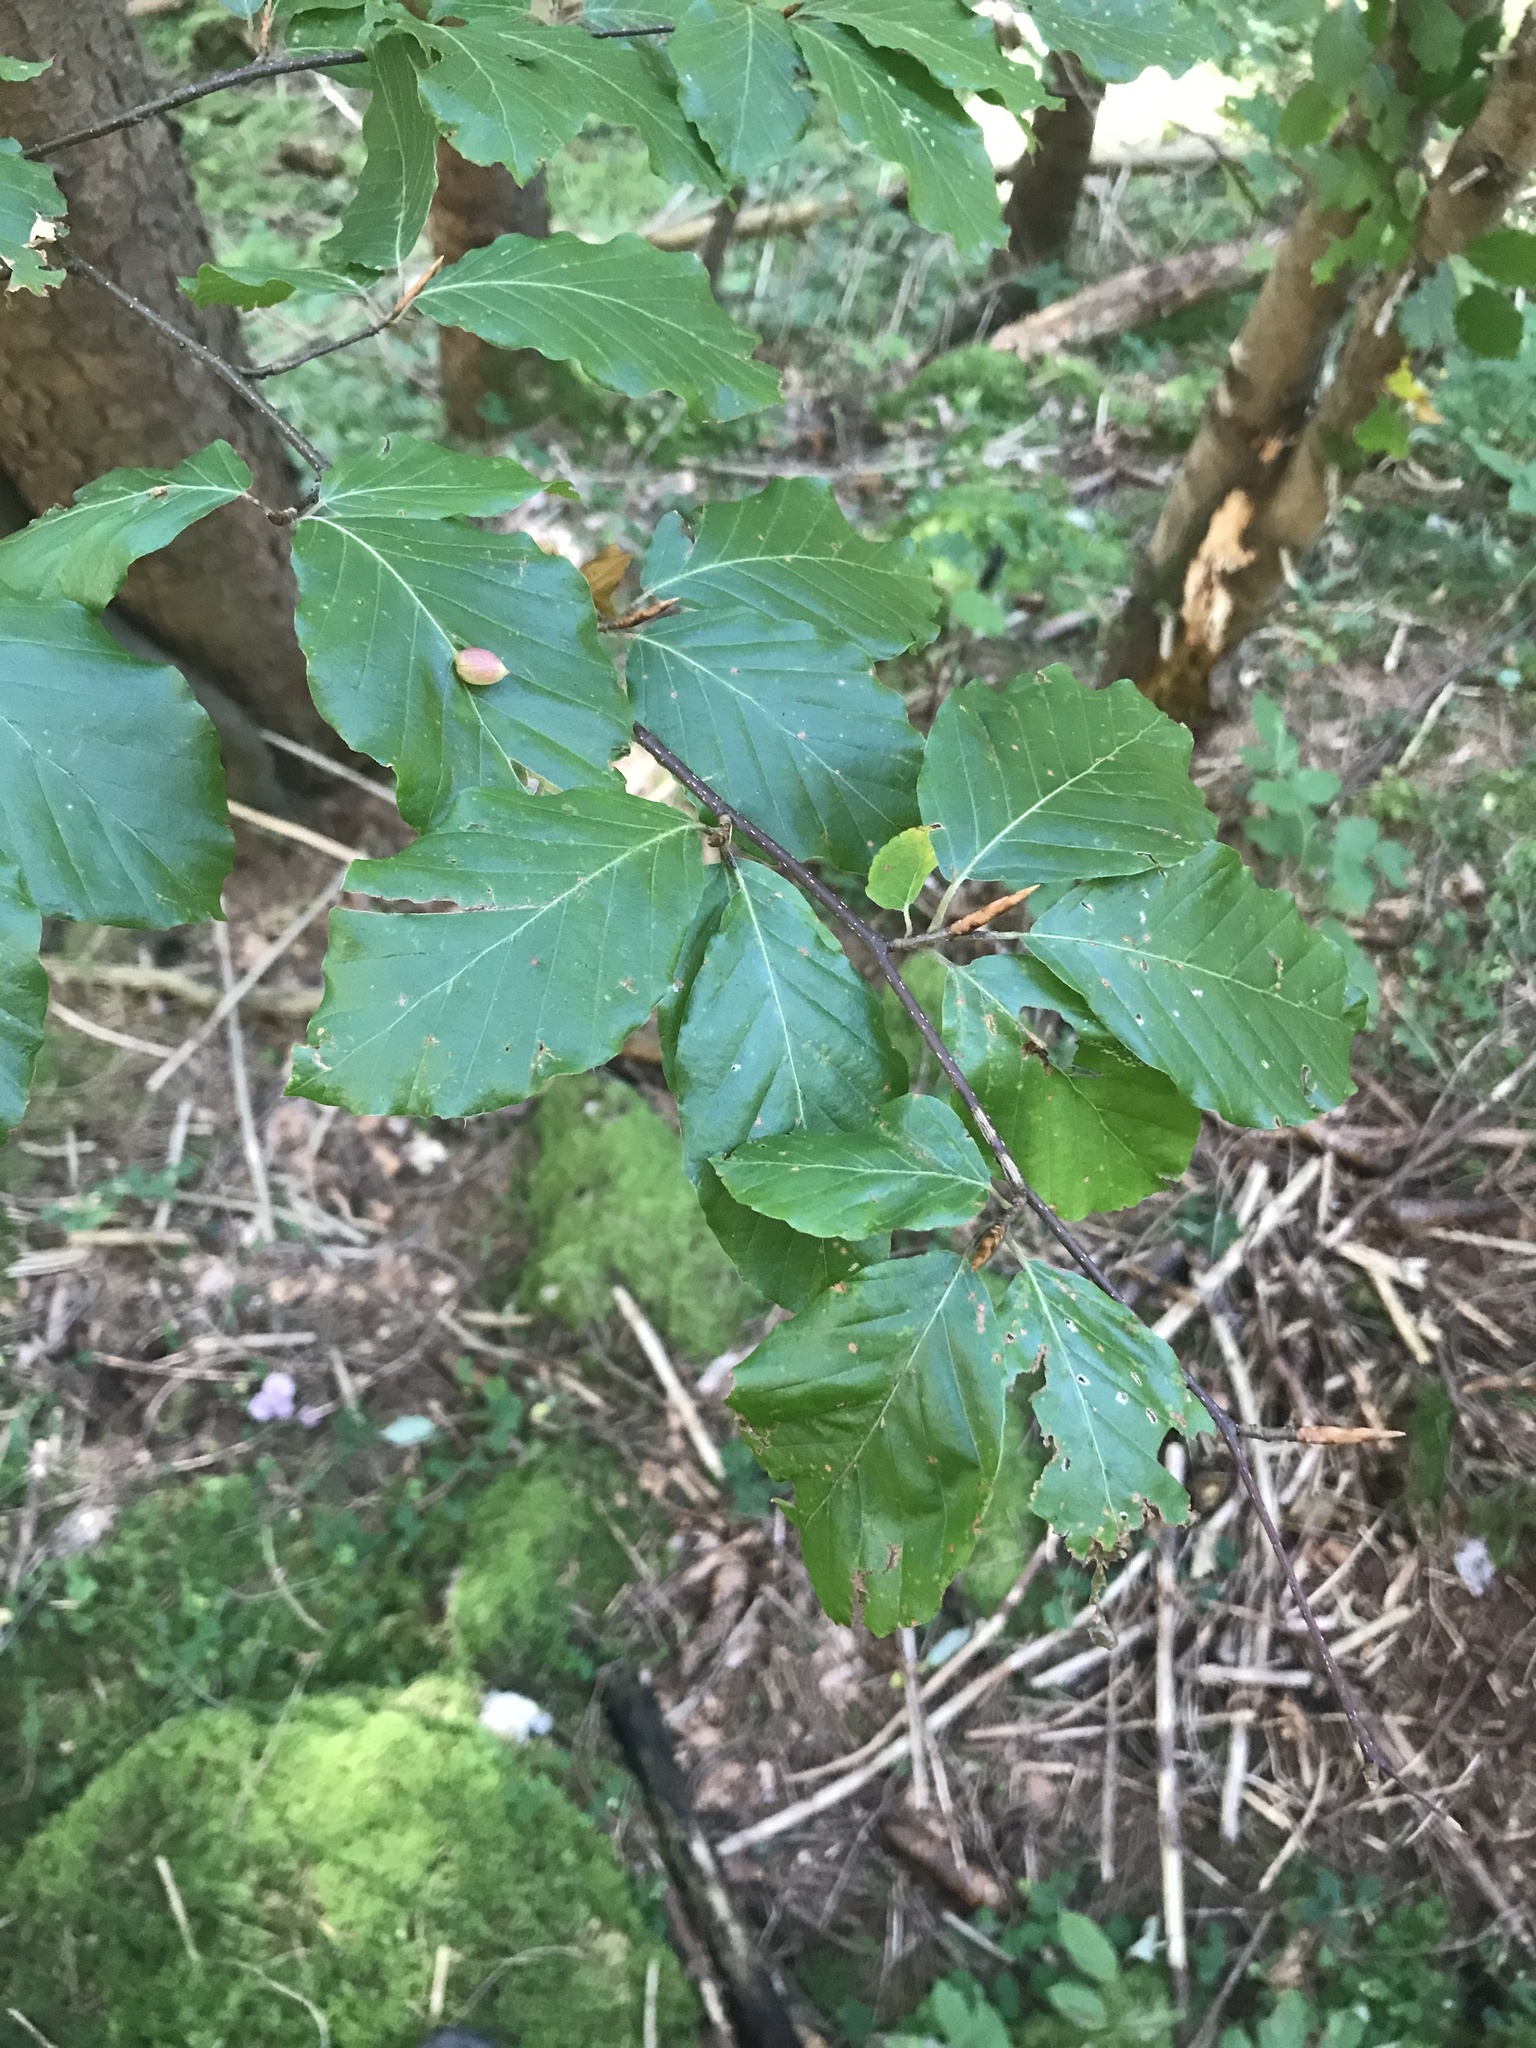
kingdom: Plantae
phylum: Tracheophyta
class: Magnoliopsida
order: Fagales
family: Fagaceae
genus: Fagus
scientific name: Fagus sylvatica
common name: Beech
